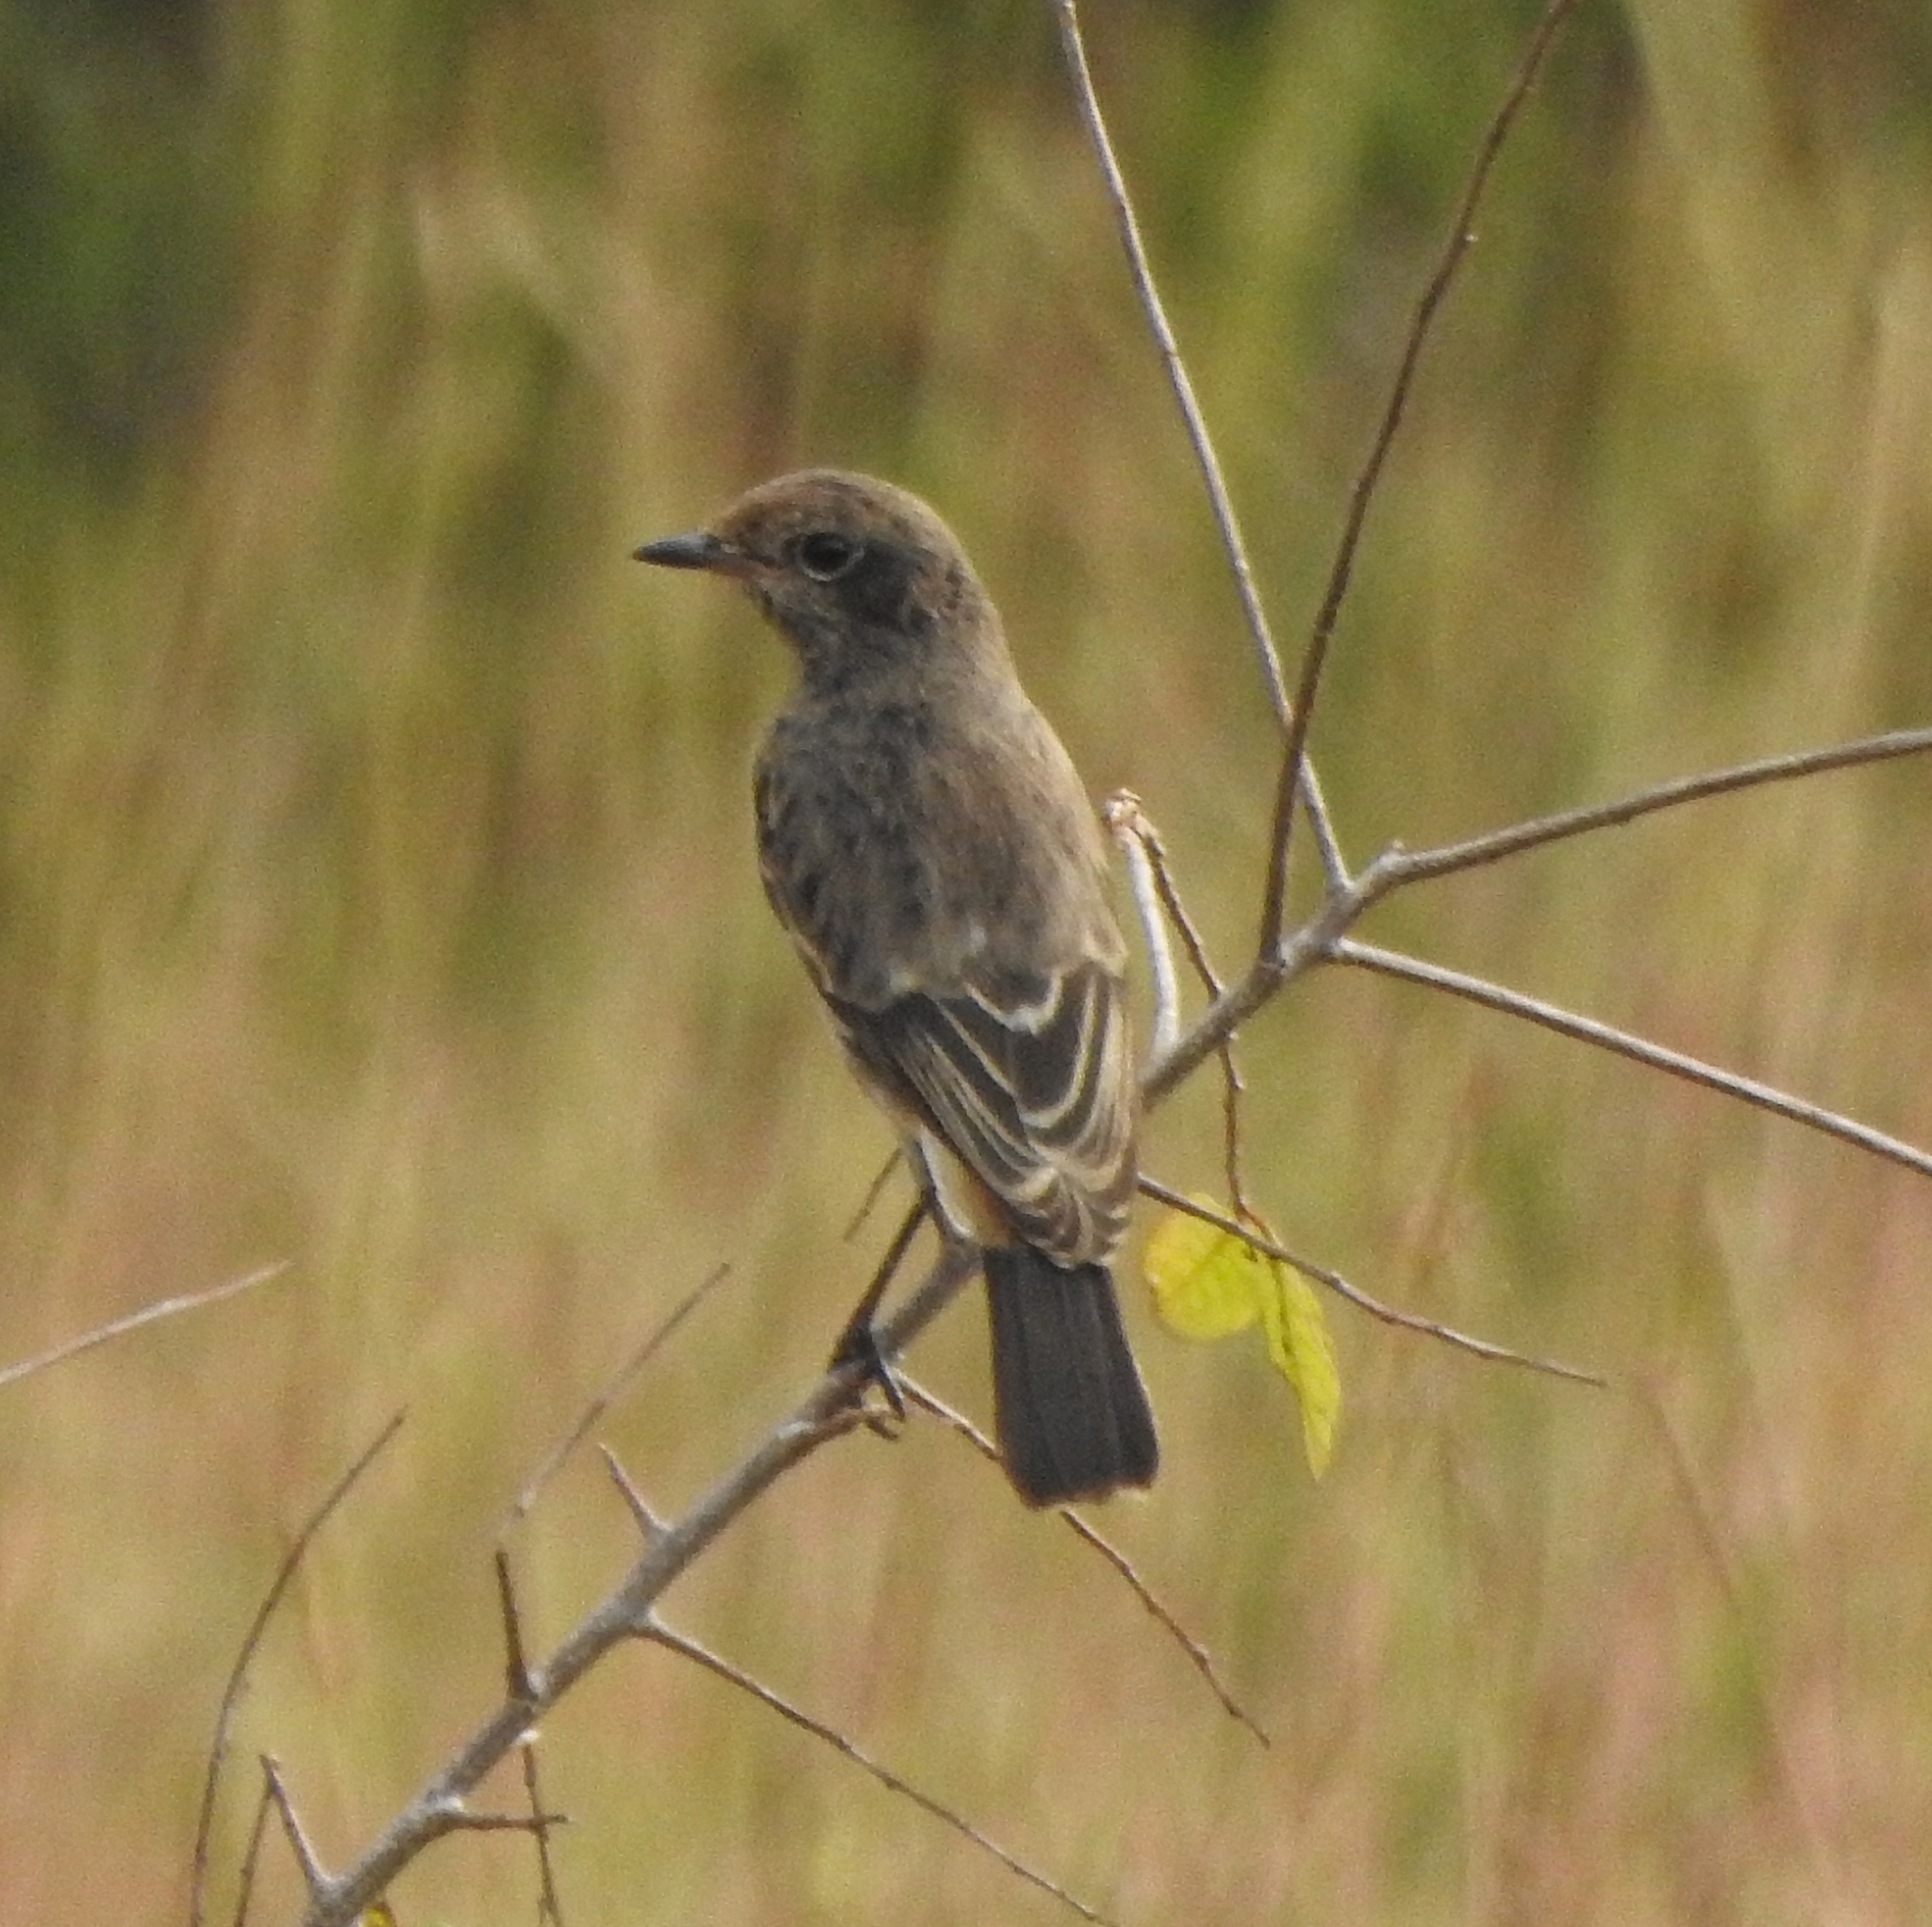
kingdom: Animalia
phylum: Chordata
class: Aves
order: Passeriformes
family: Muscicapidae
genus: Saxicola
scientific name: Saxicola caprata
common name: Pied bush chat
